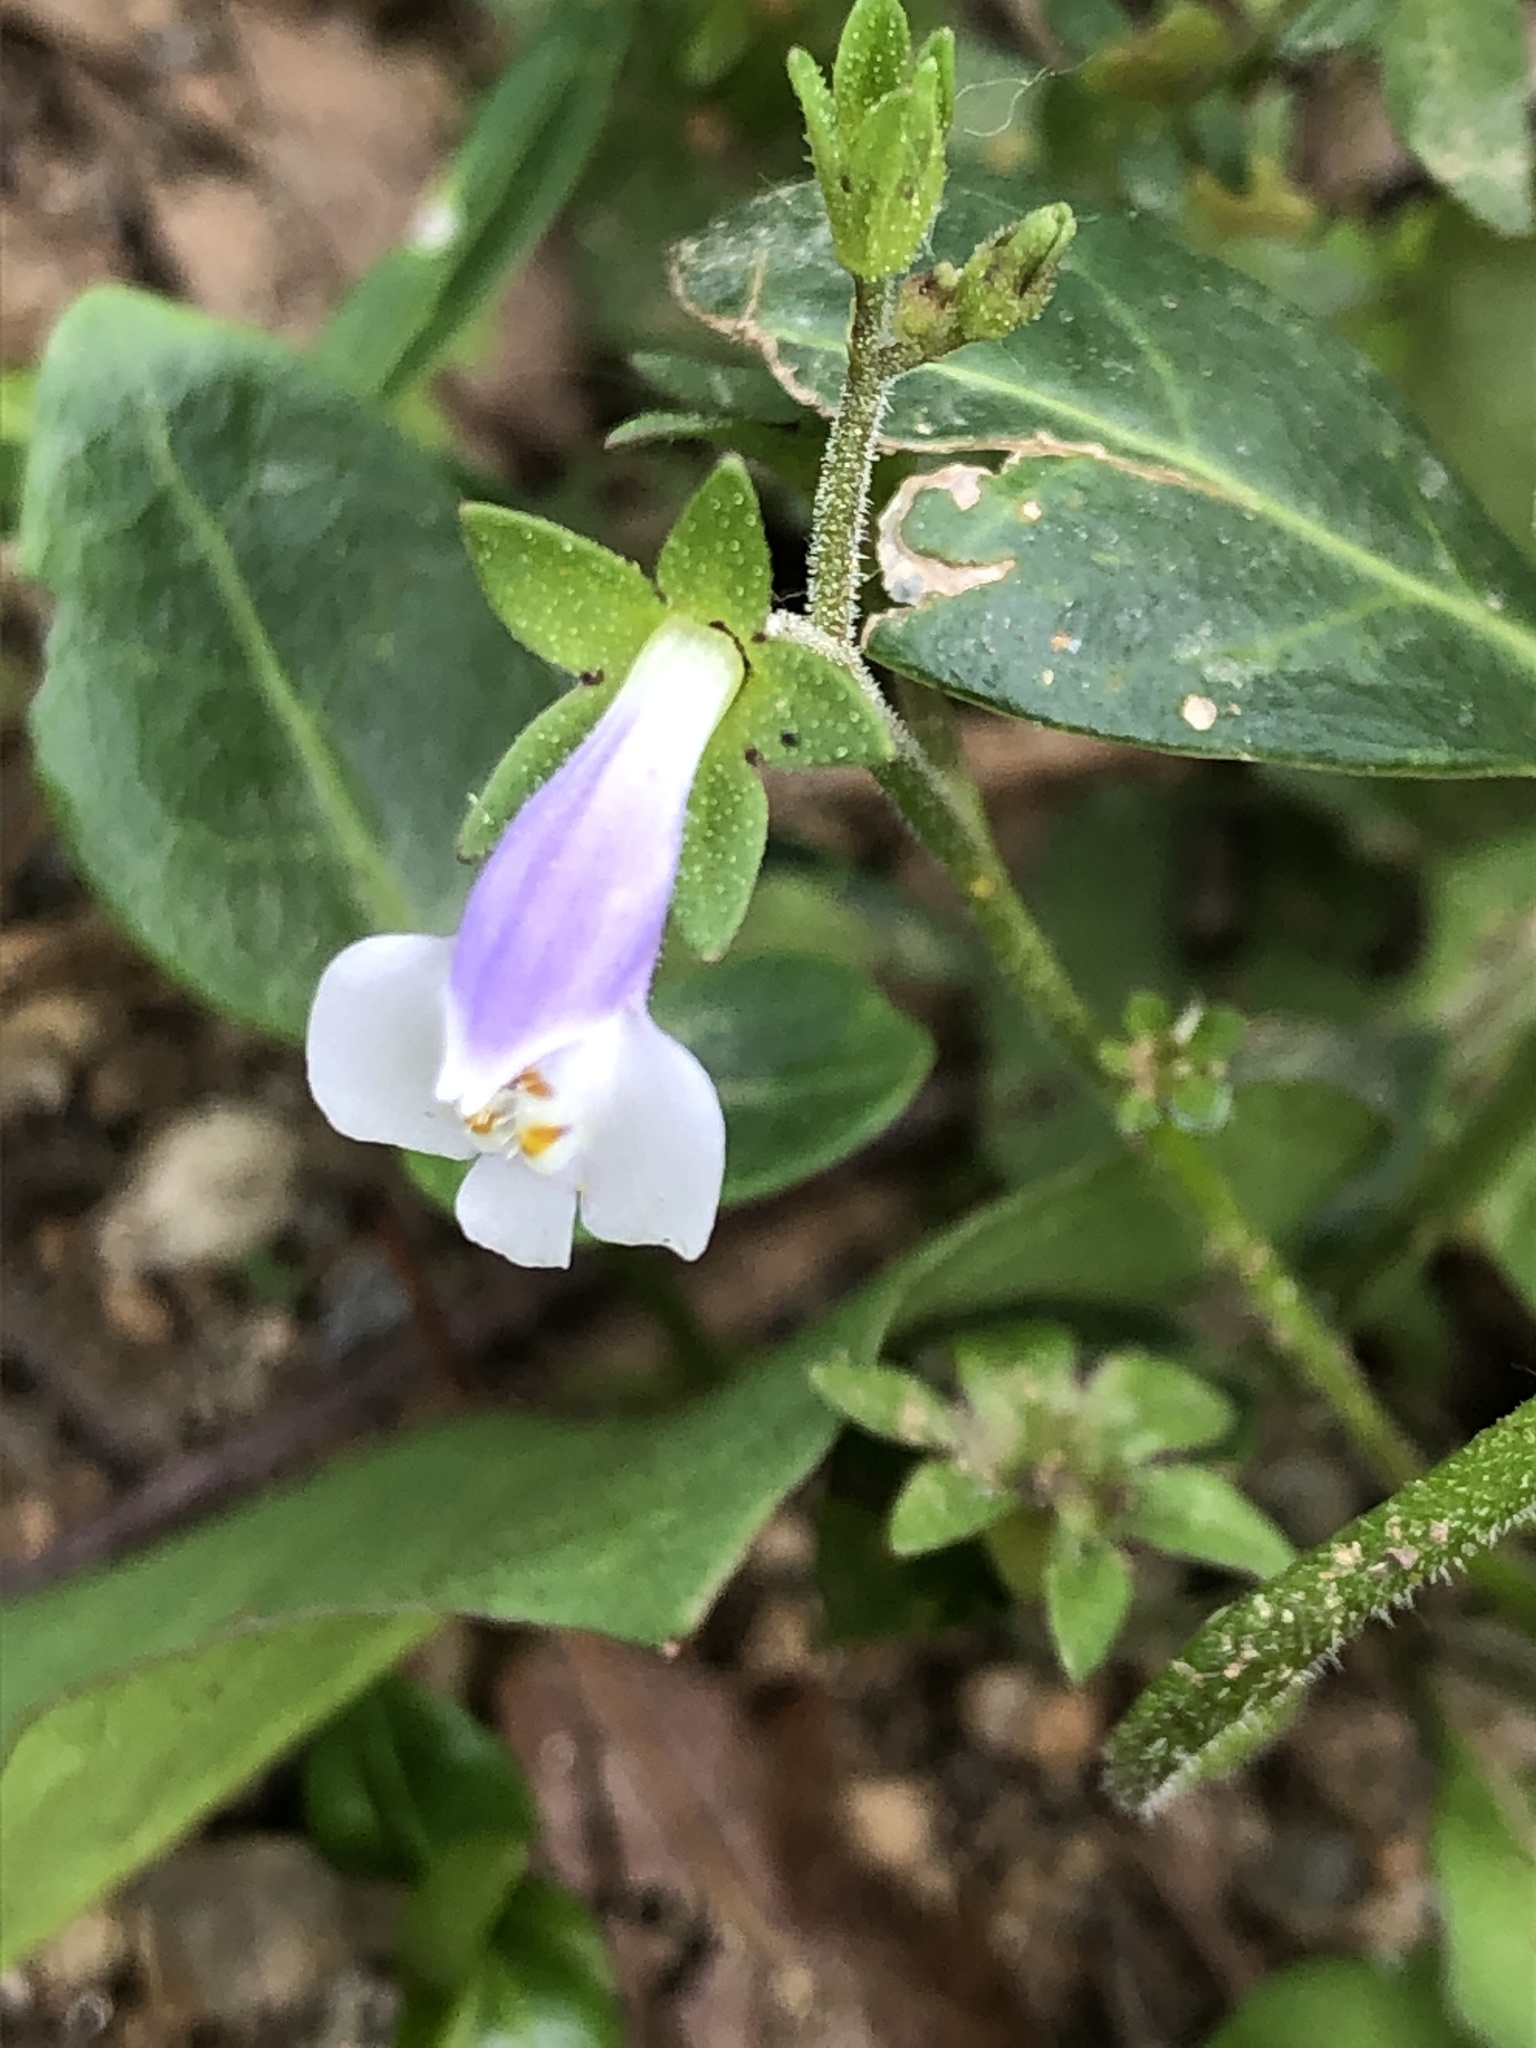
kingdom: Plantae
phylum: Tracheophyta
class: Magnoliopsida
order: Lamiales
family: Mazaceae
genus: Mazus
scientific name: Mazus pumilus
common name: Japanese mazus
